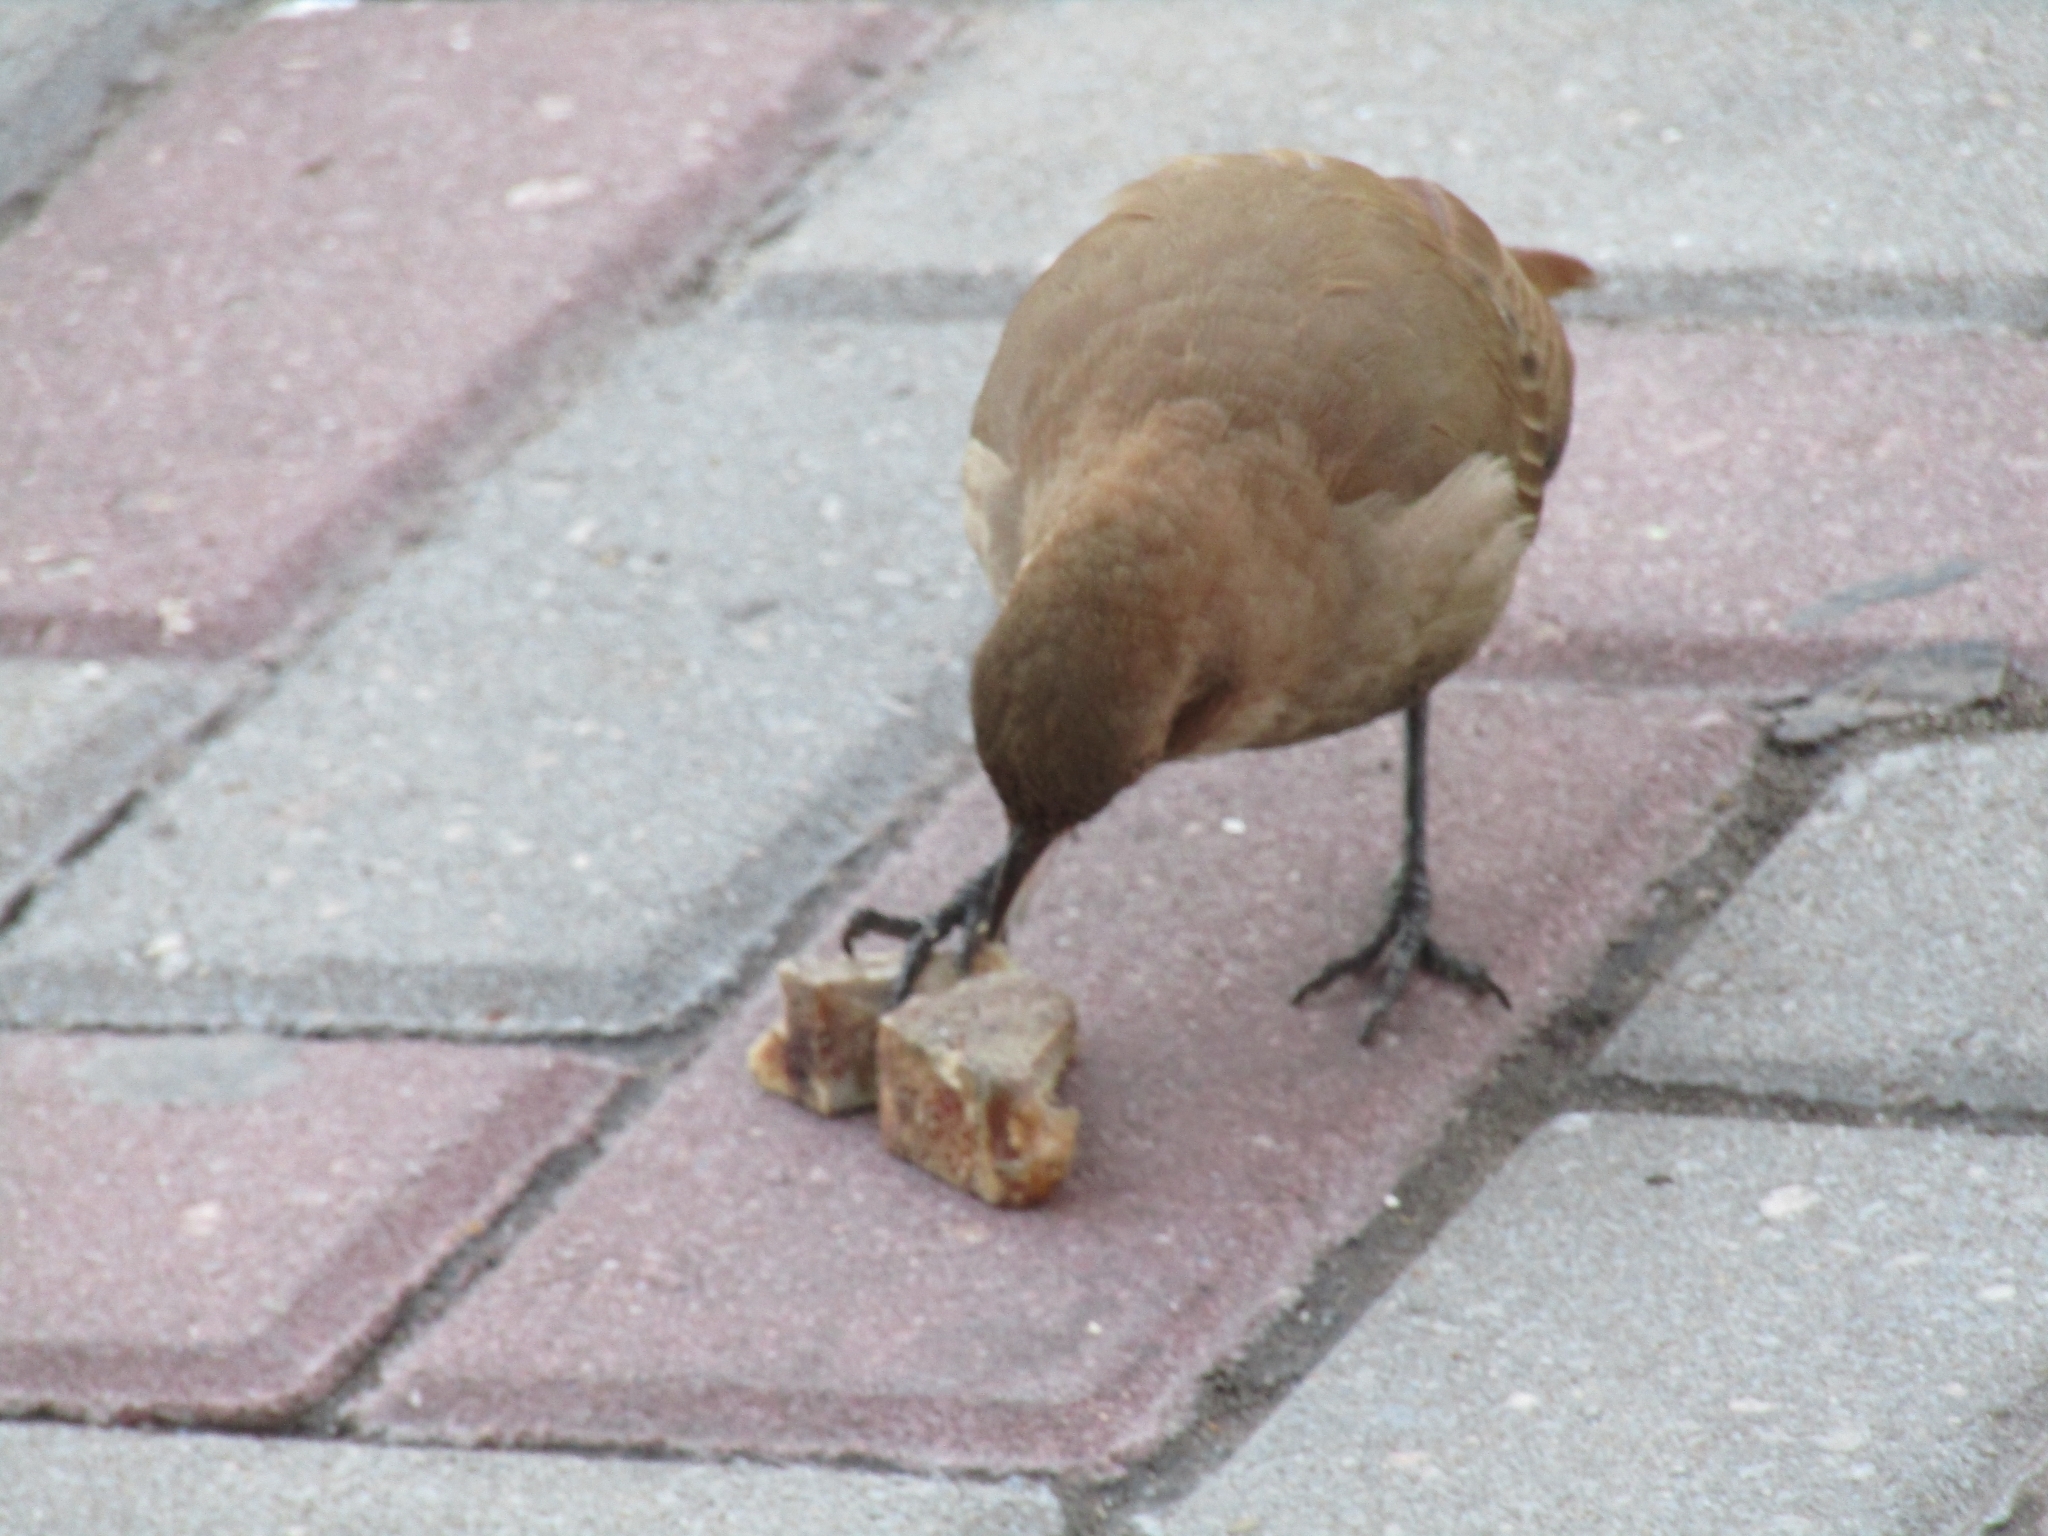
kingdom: Animalia
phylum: Chordata
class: Aves
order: Passeriformes
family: Furnariidae
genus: Furnarius
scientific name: Furnarius rufus
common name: Rufous hornero
